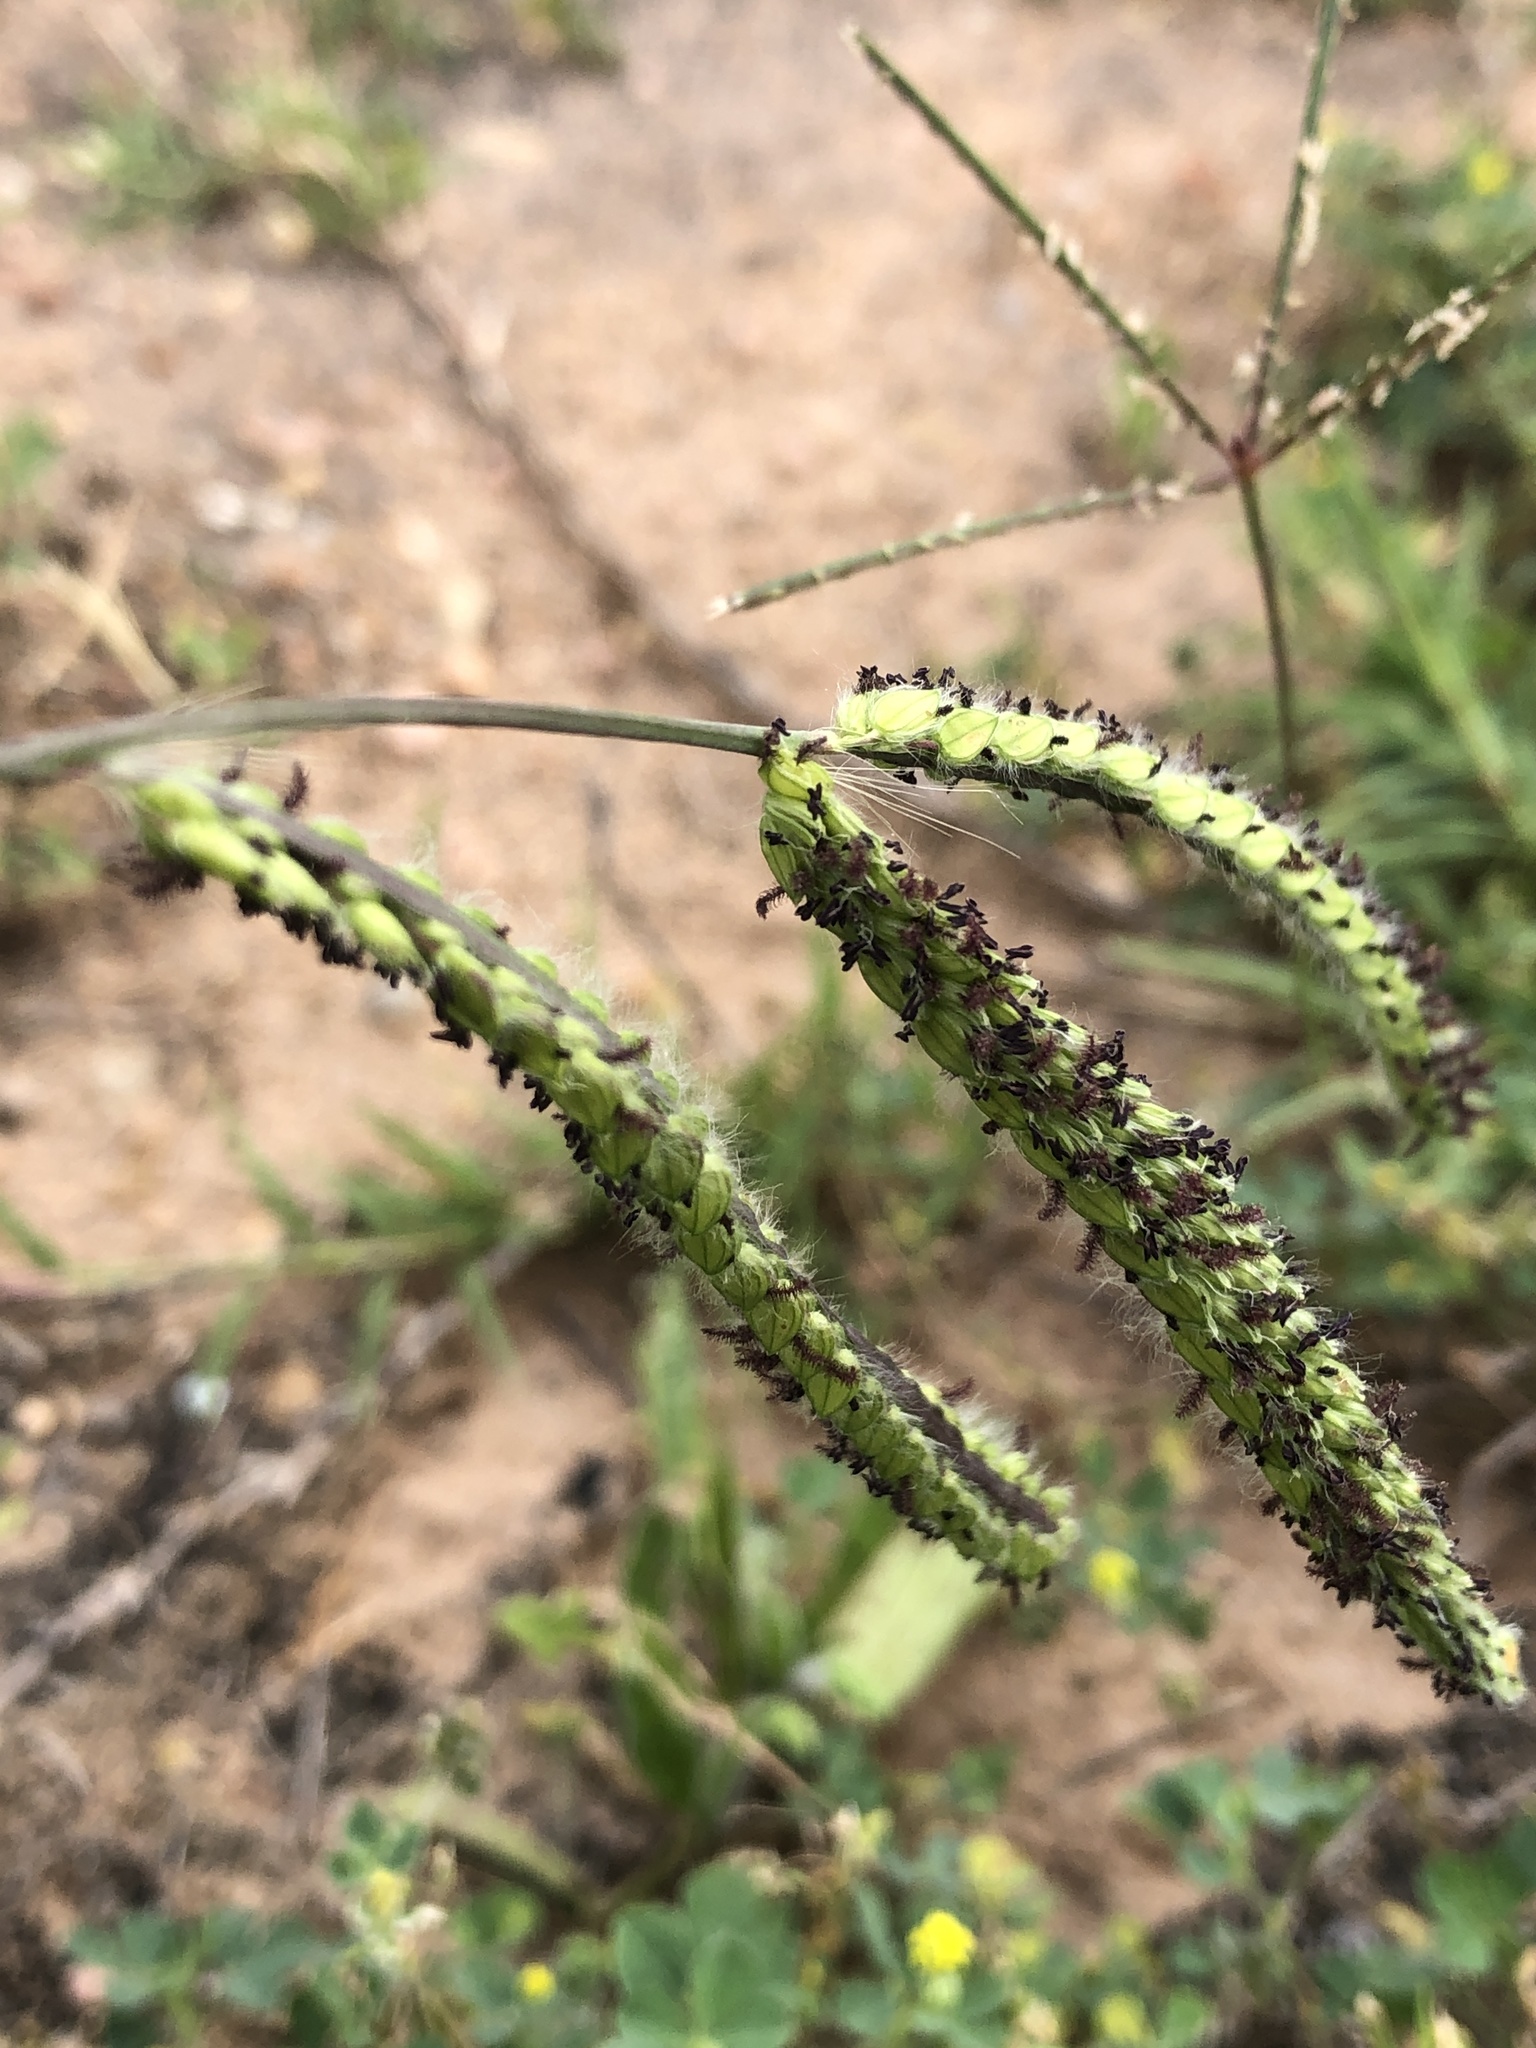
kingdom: Plantae
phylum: Tracheophyta
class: Liliopsida
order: Poales
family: Poaceae
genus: Paspalum
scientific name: Paspalum dilatatum
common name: Dallisgrass
